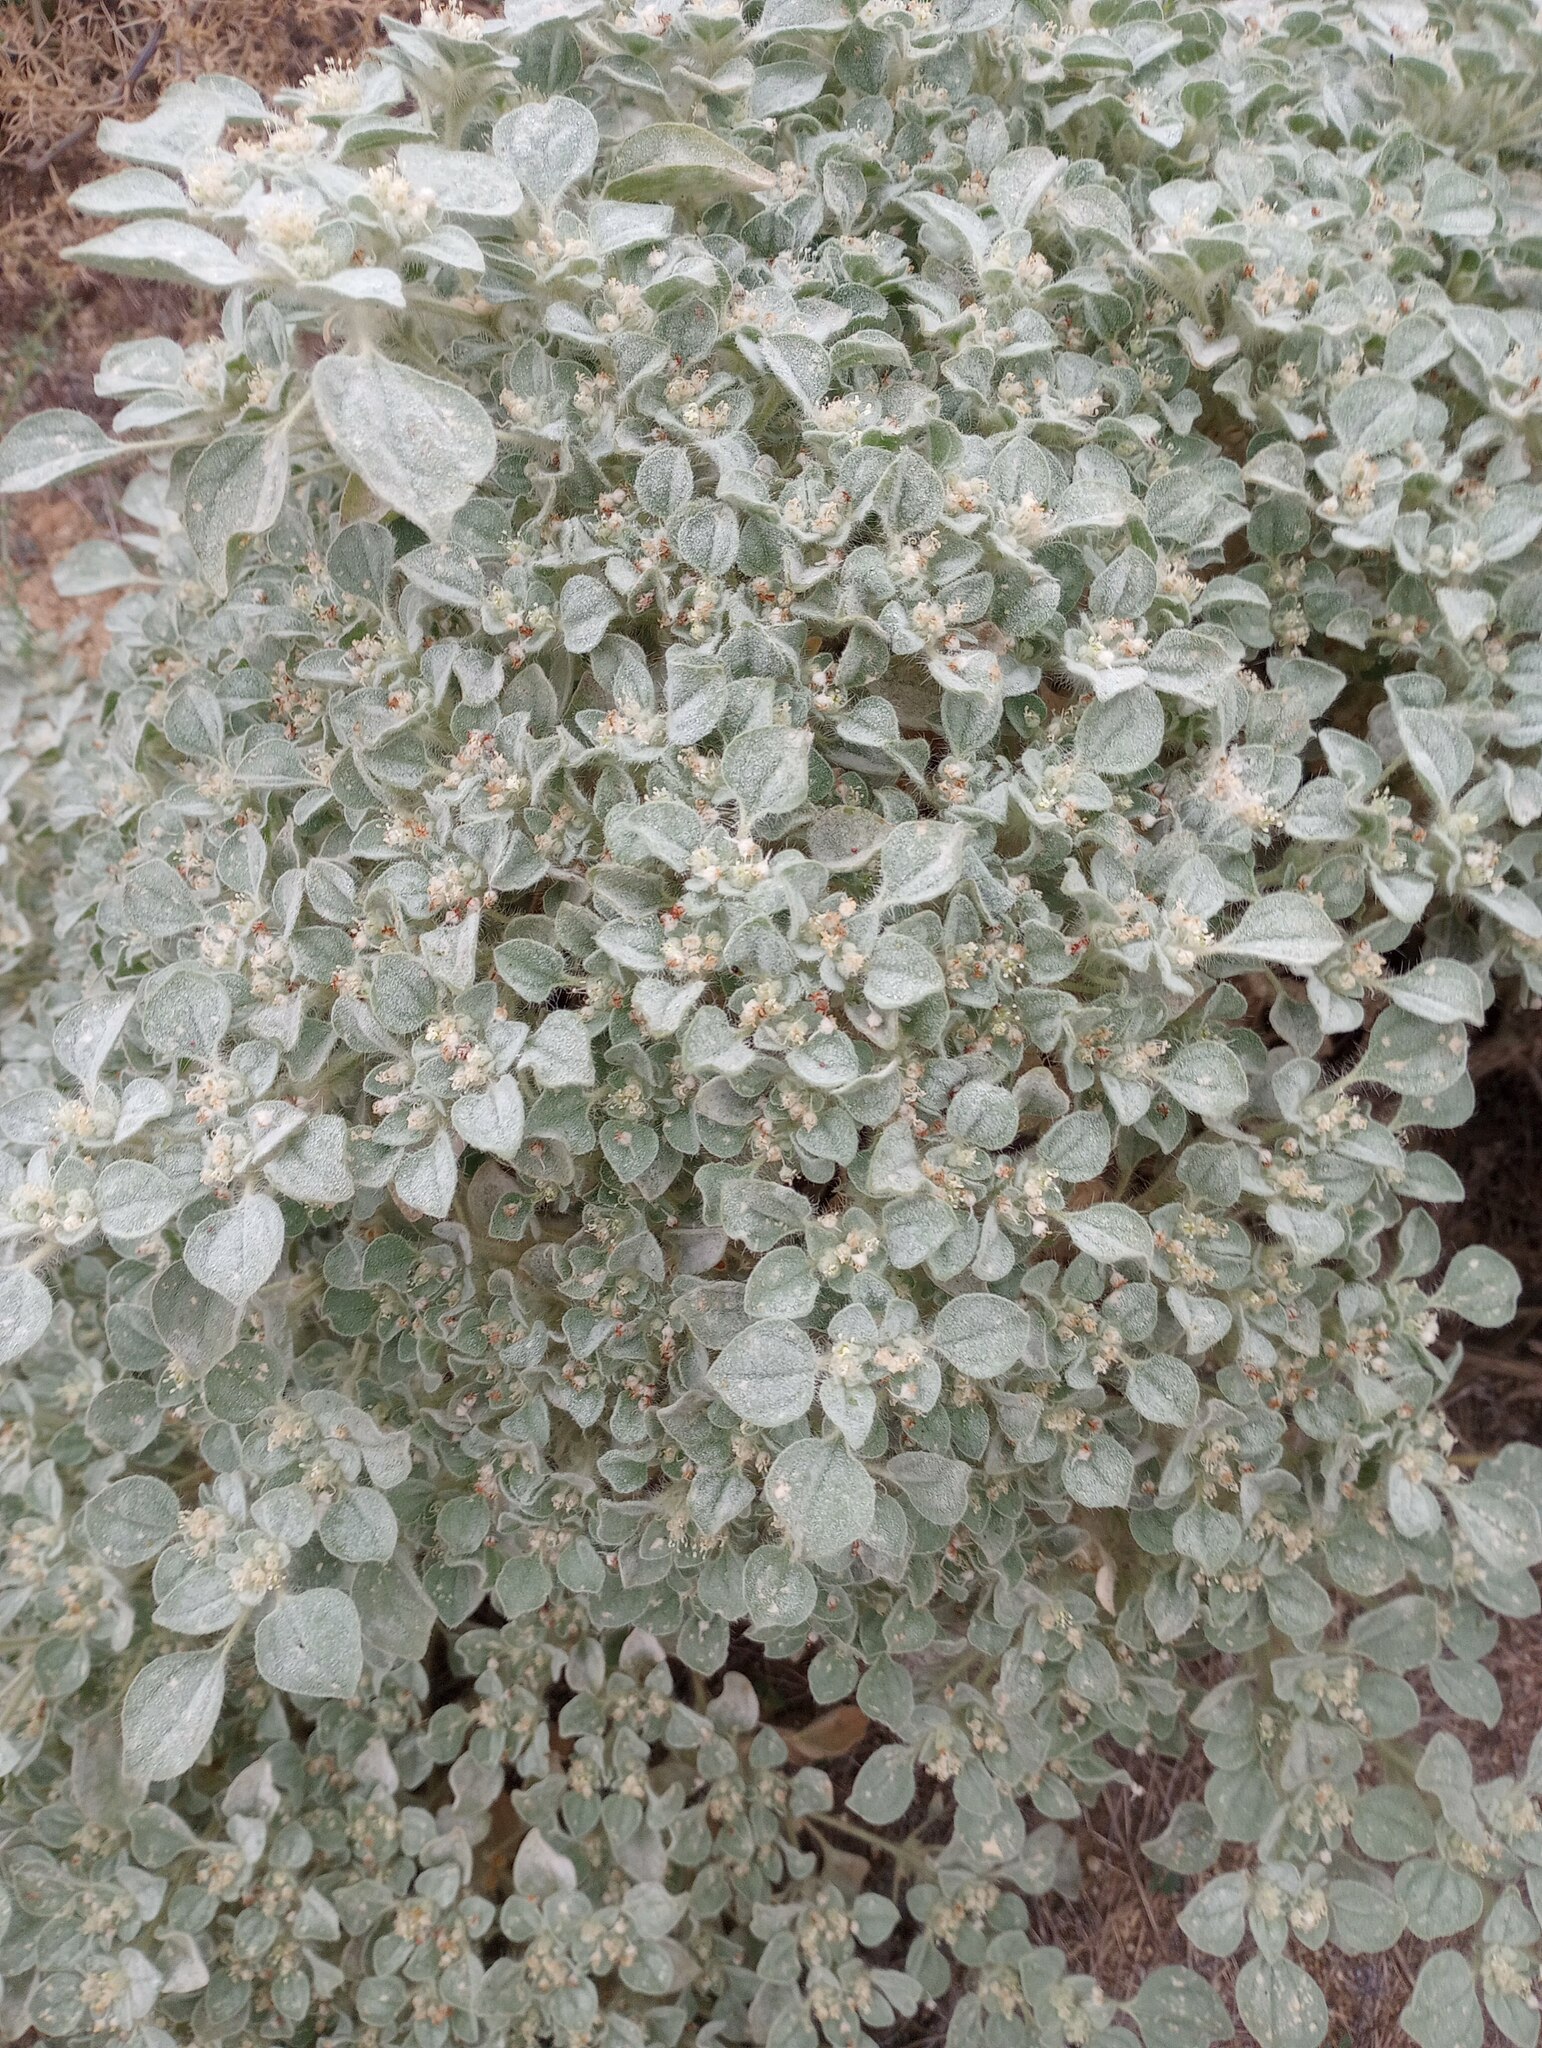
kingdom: Plantae
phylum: Tracheophyta
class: Magnoliopsida
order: Malpighiales
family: Euphorbiaceae
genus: Croton
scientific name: Croton setiger
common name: Dove weed
